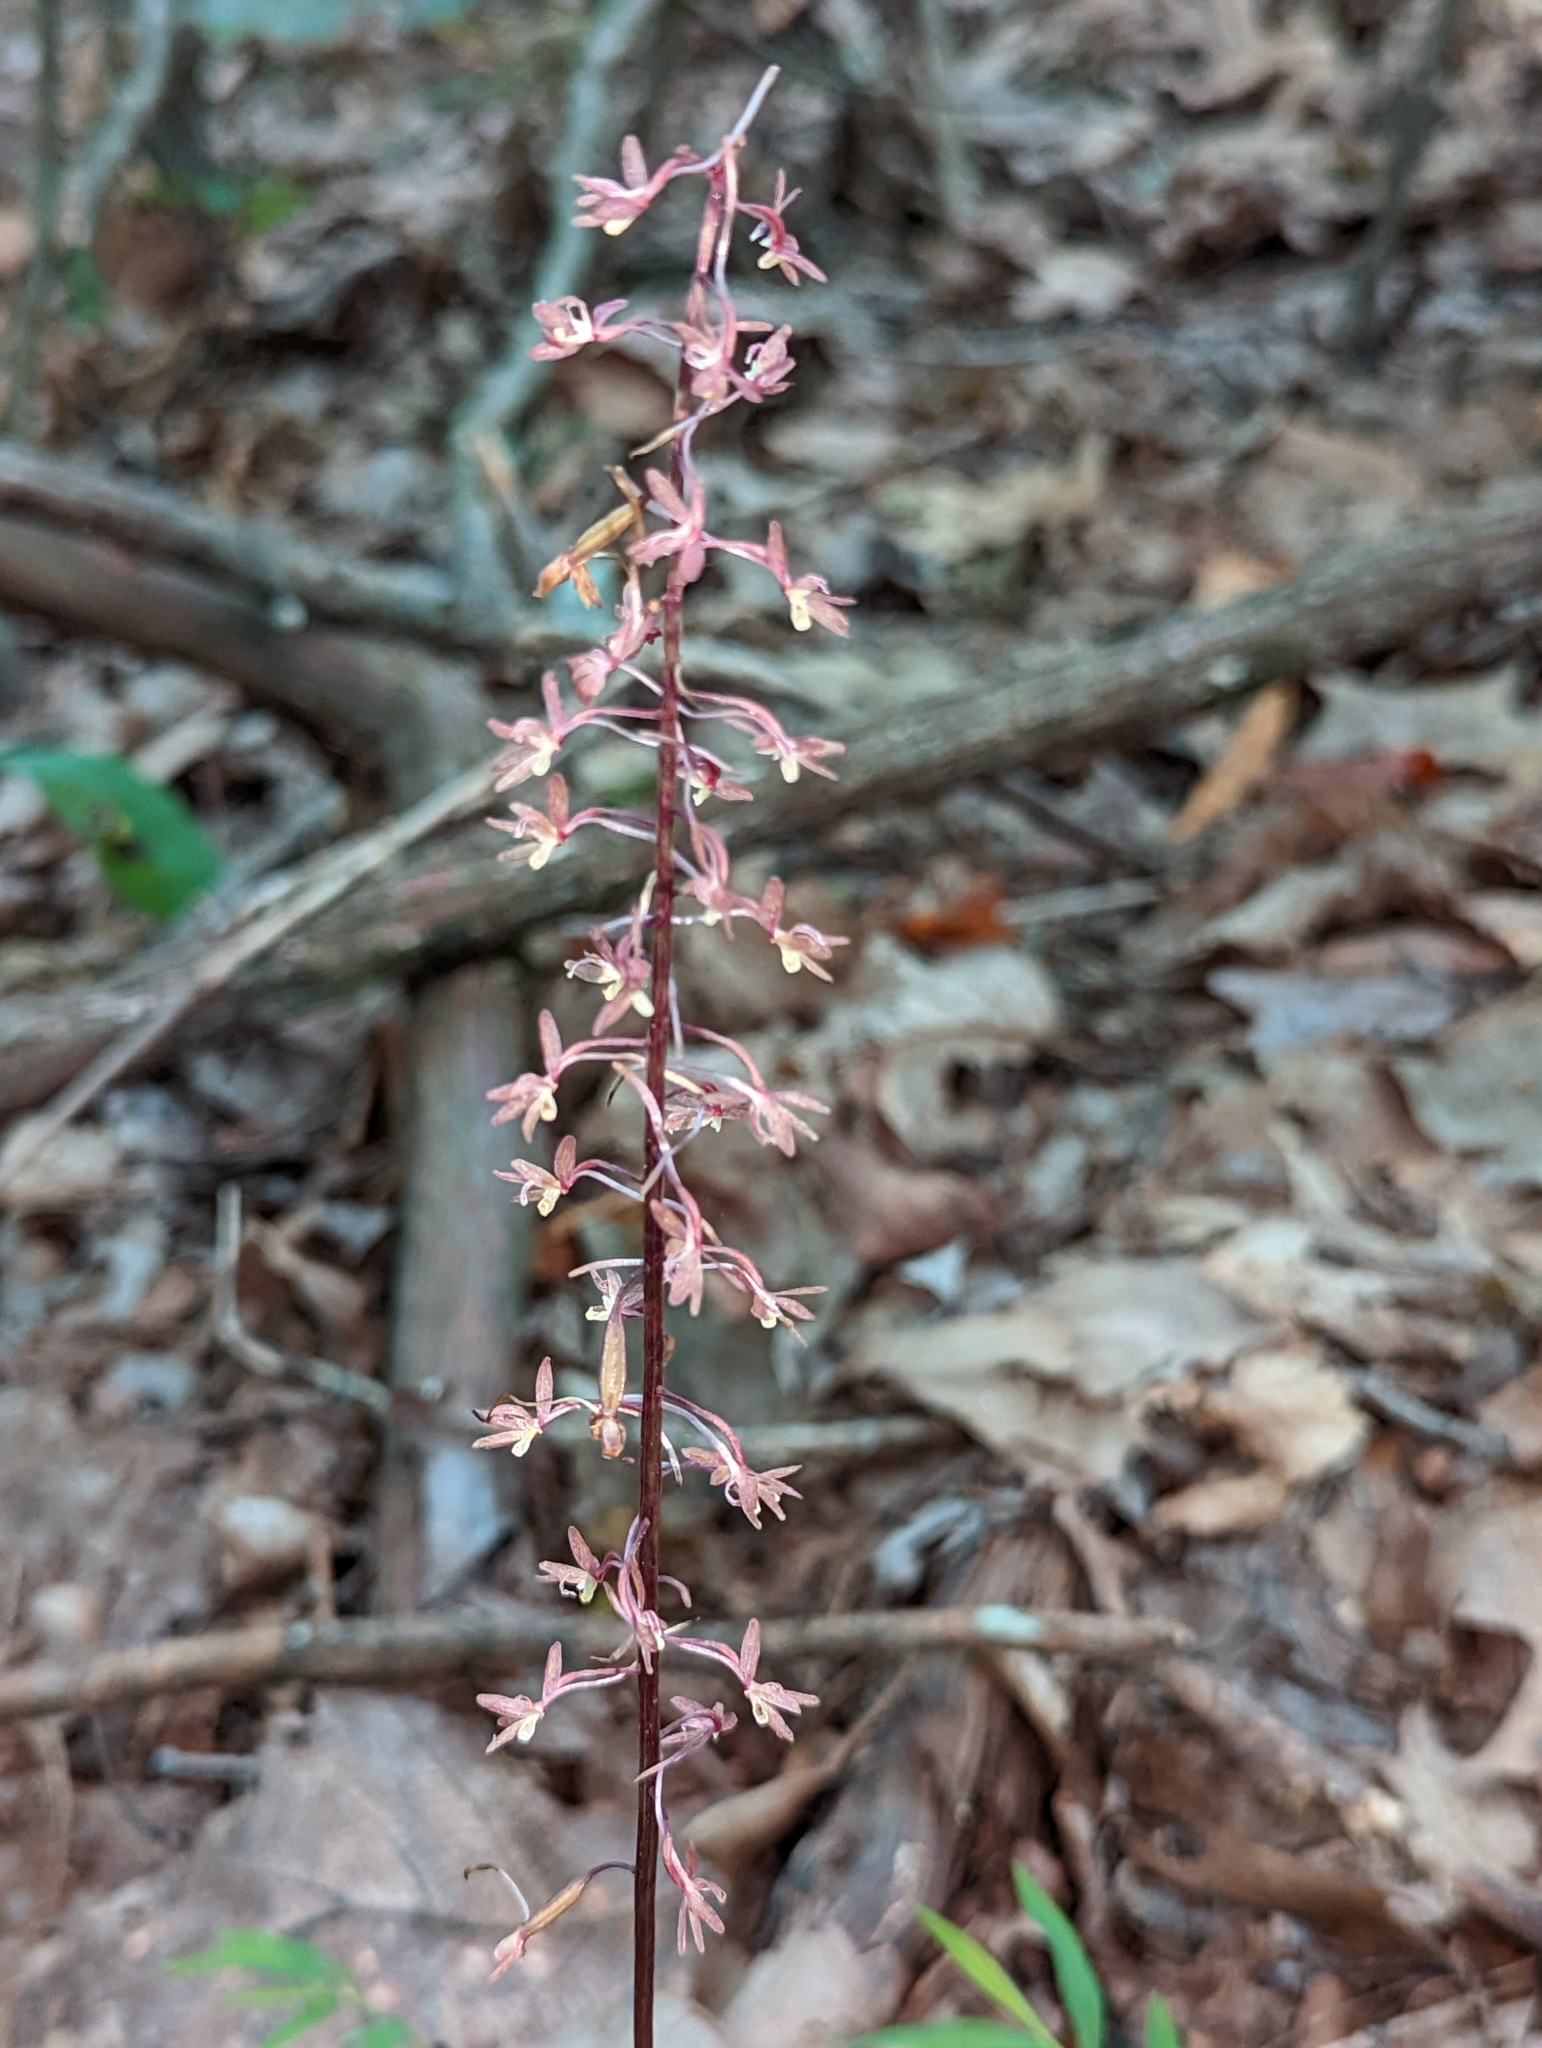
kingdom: Plantae
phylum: Tracheophyta
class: Liliopsida
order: Asparagales
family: Orchidaceae
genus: Tipularia
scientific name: Tipularia discolor
